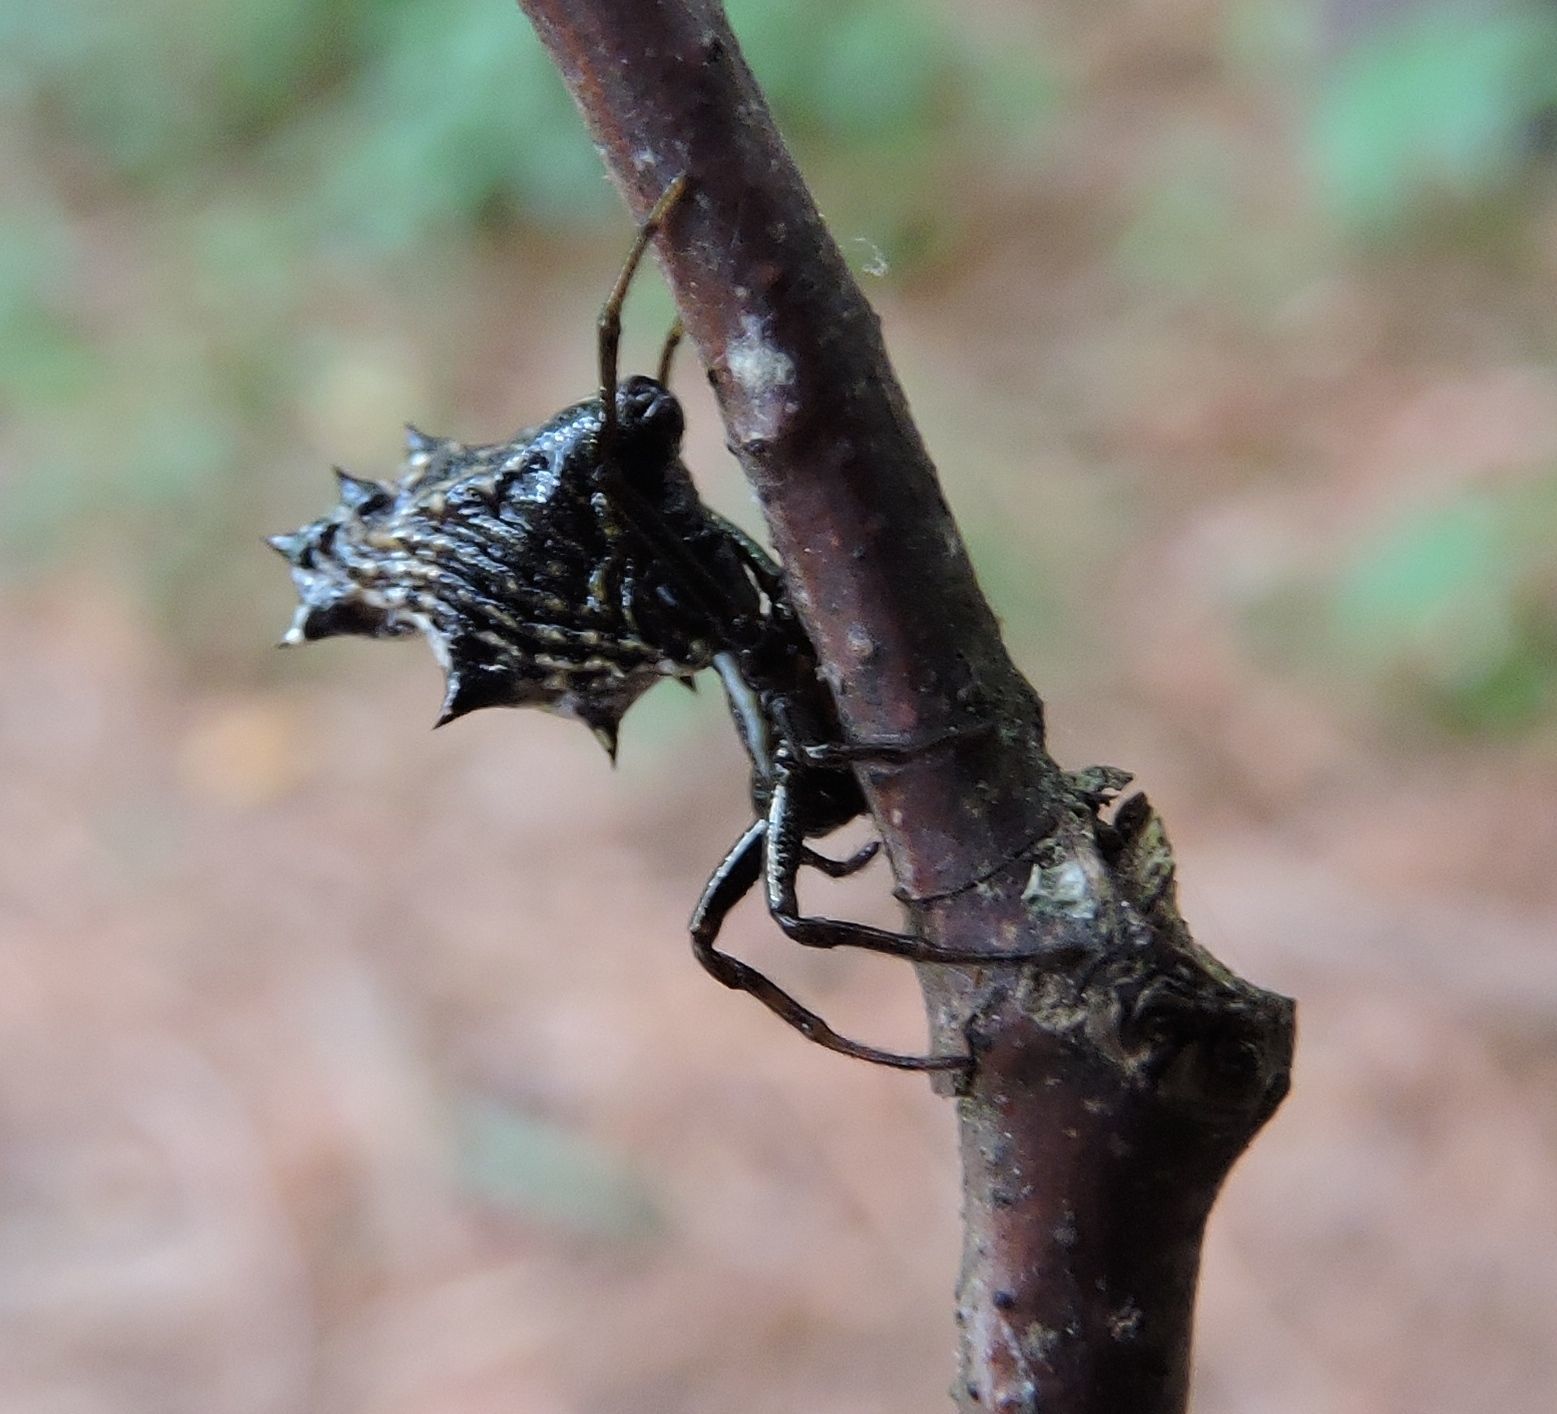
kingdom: Animalia
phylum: Arthropoda
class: Arachnida
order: Araneae
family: Araneidae
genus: Micrathena
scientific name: Micrathena gracilis
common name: Orb weavers
